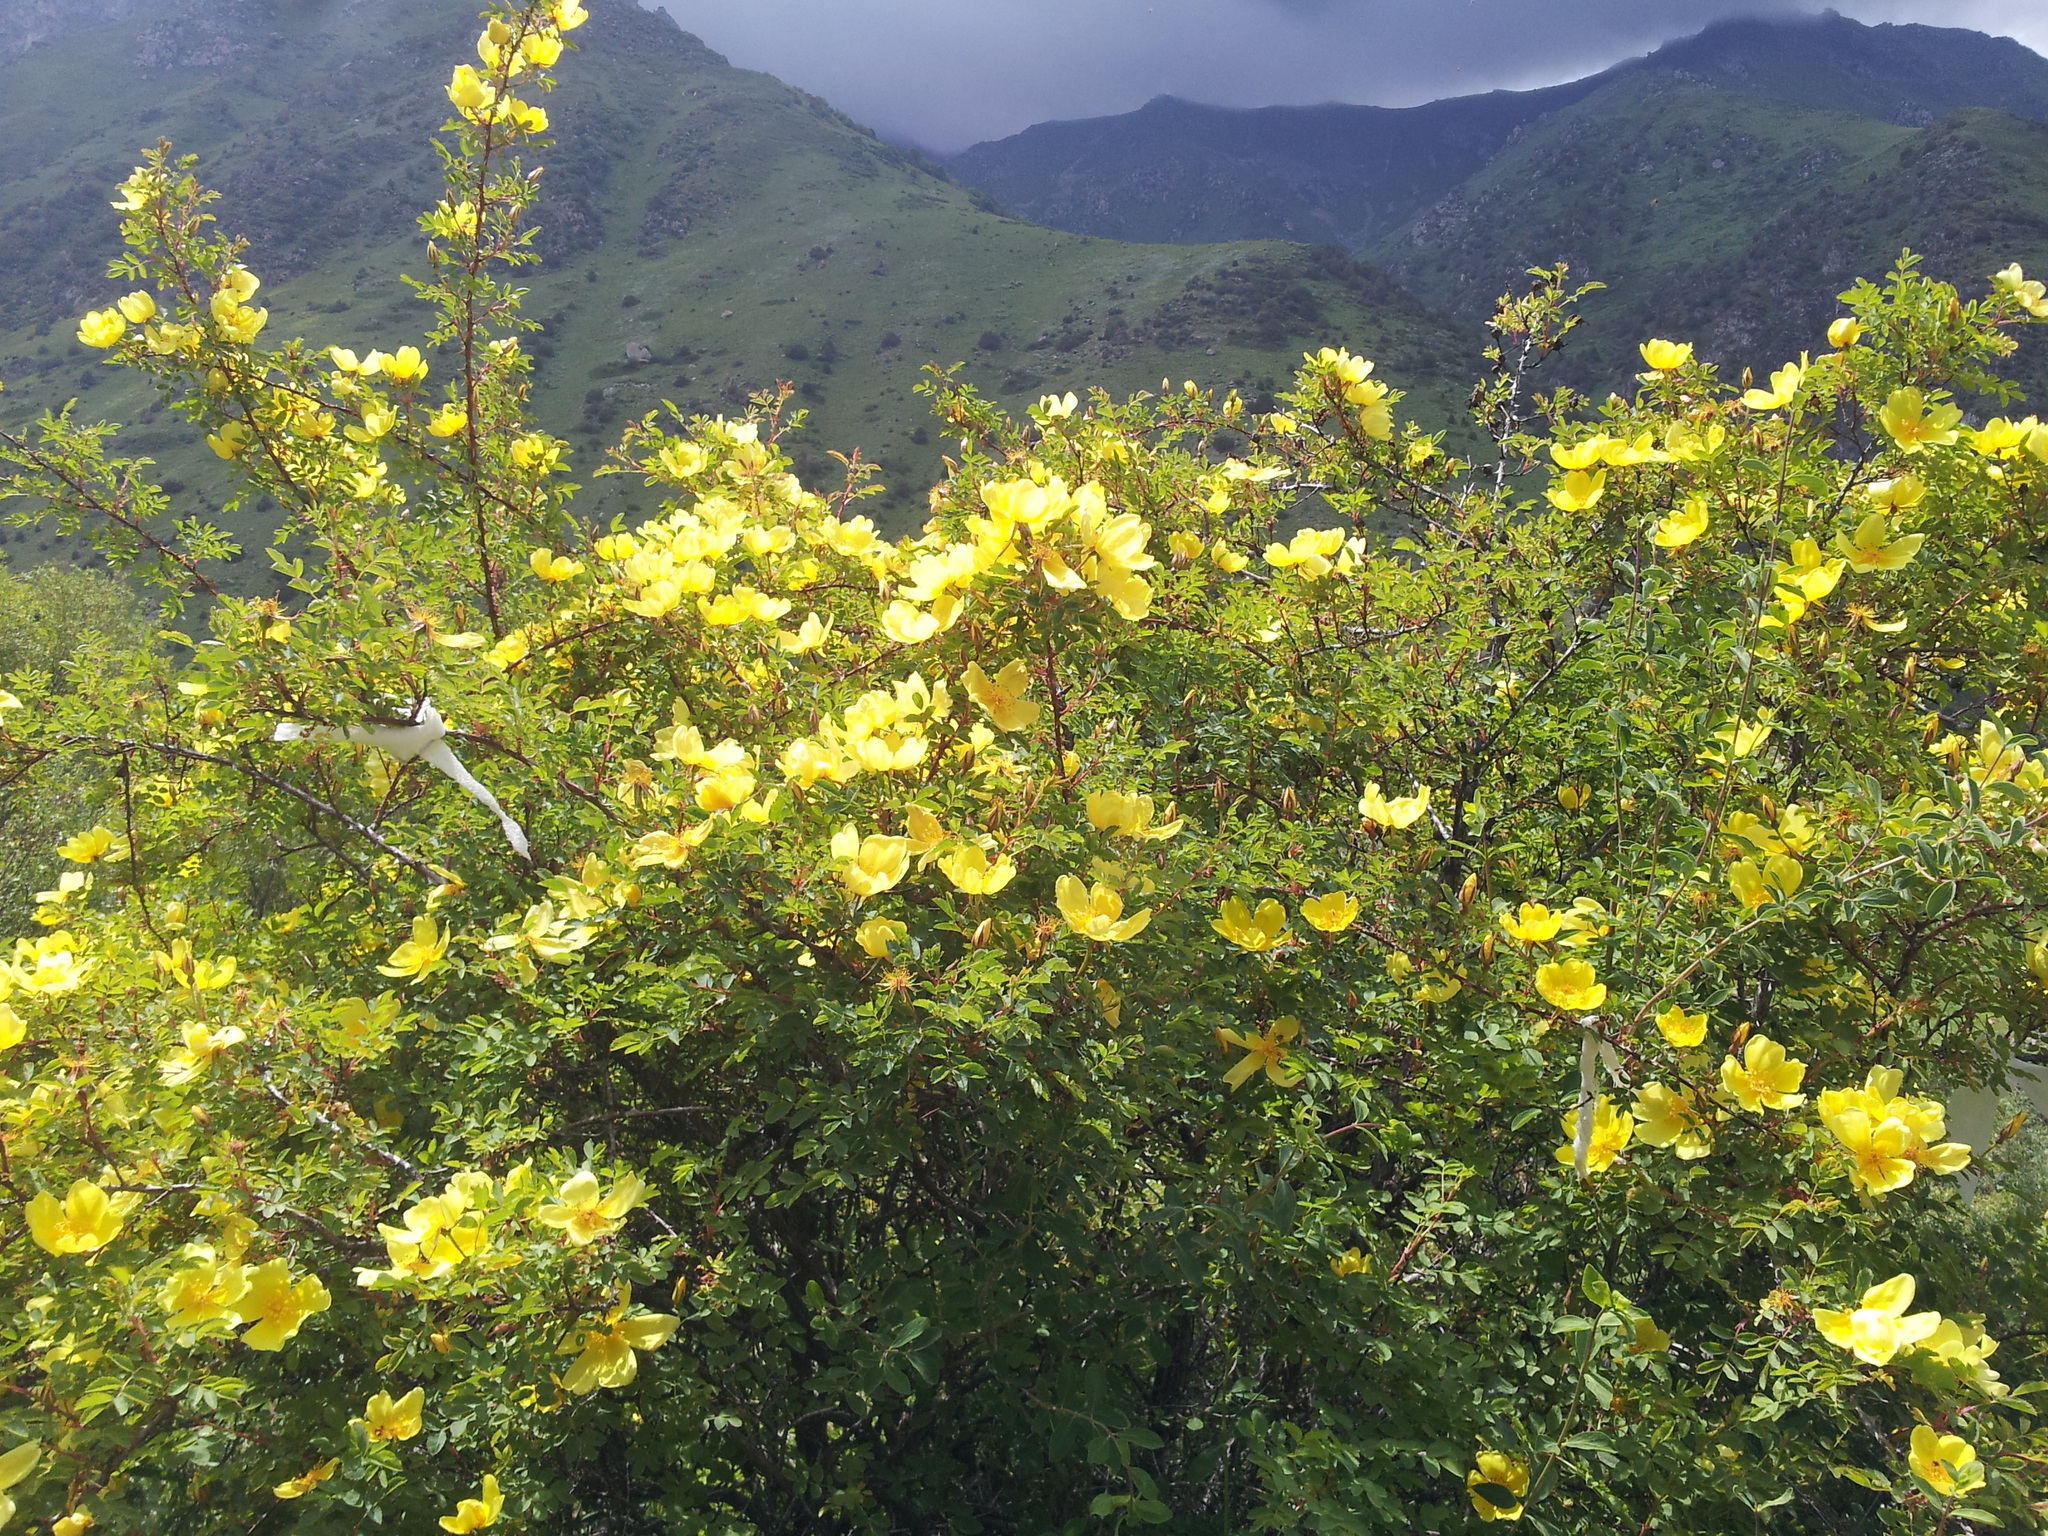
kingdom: Plantae
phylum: Tracheophyta
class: Magnoliopsida
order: Rosales
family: Rosaceae
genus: Rosa
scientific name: Rosa platyacantha
